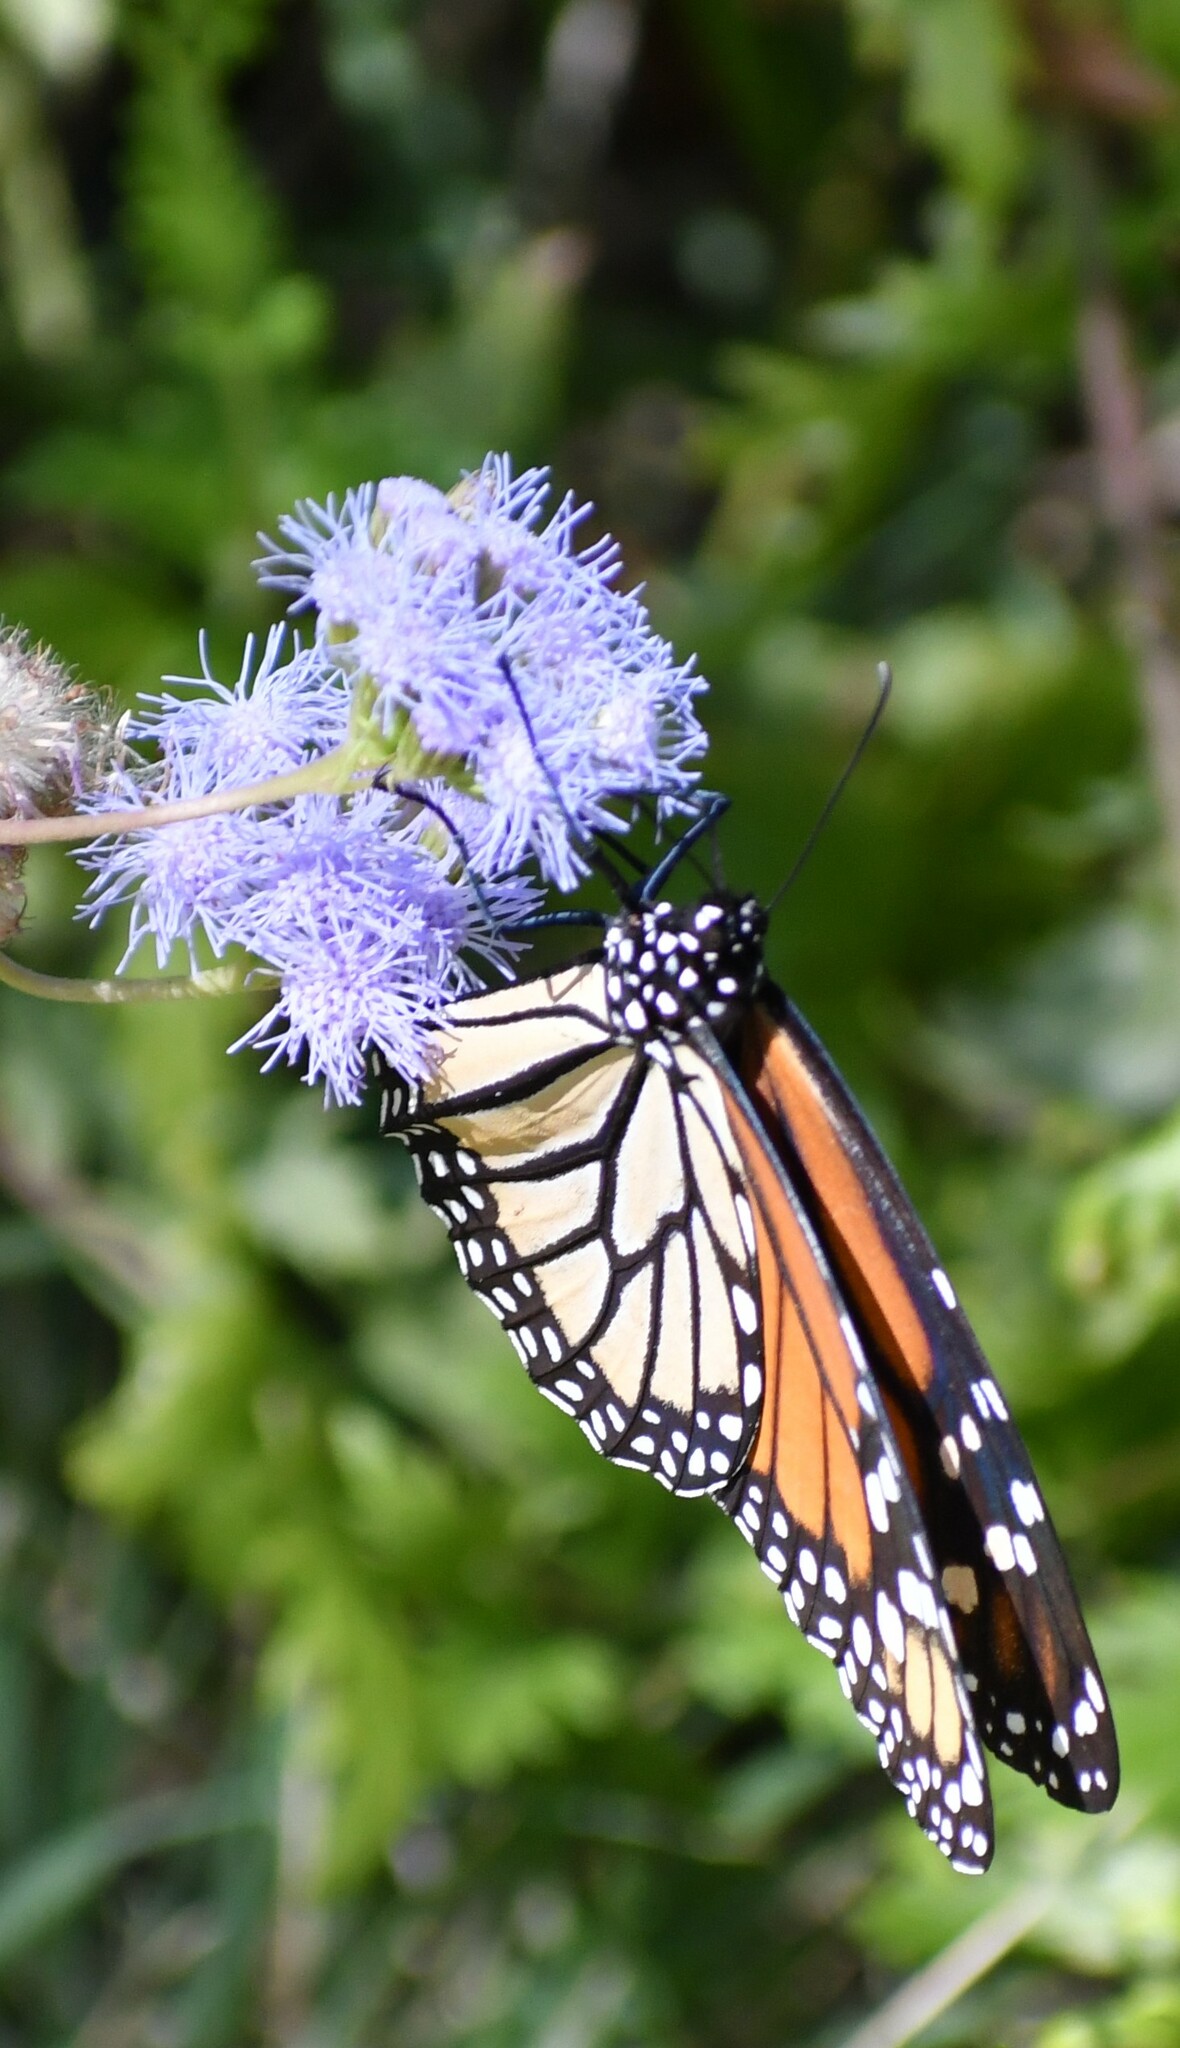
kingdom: Animalia
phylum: Arthropoda
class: Insecta
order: Lepidoptera
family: Nymphalidae
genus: Danaus
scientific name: Danaus plexippus
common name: Monarch
